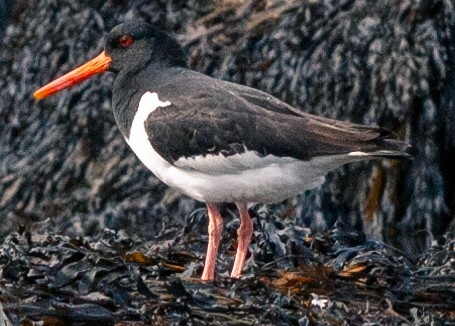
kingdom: Animalia
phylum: Chordata
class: Aves
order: Charadriiformes
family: Haematopodidae
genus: Haematopus
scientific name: Haematopus ostralegus
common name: Eurasian oystercatcher
